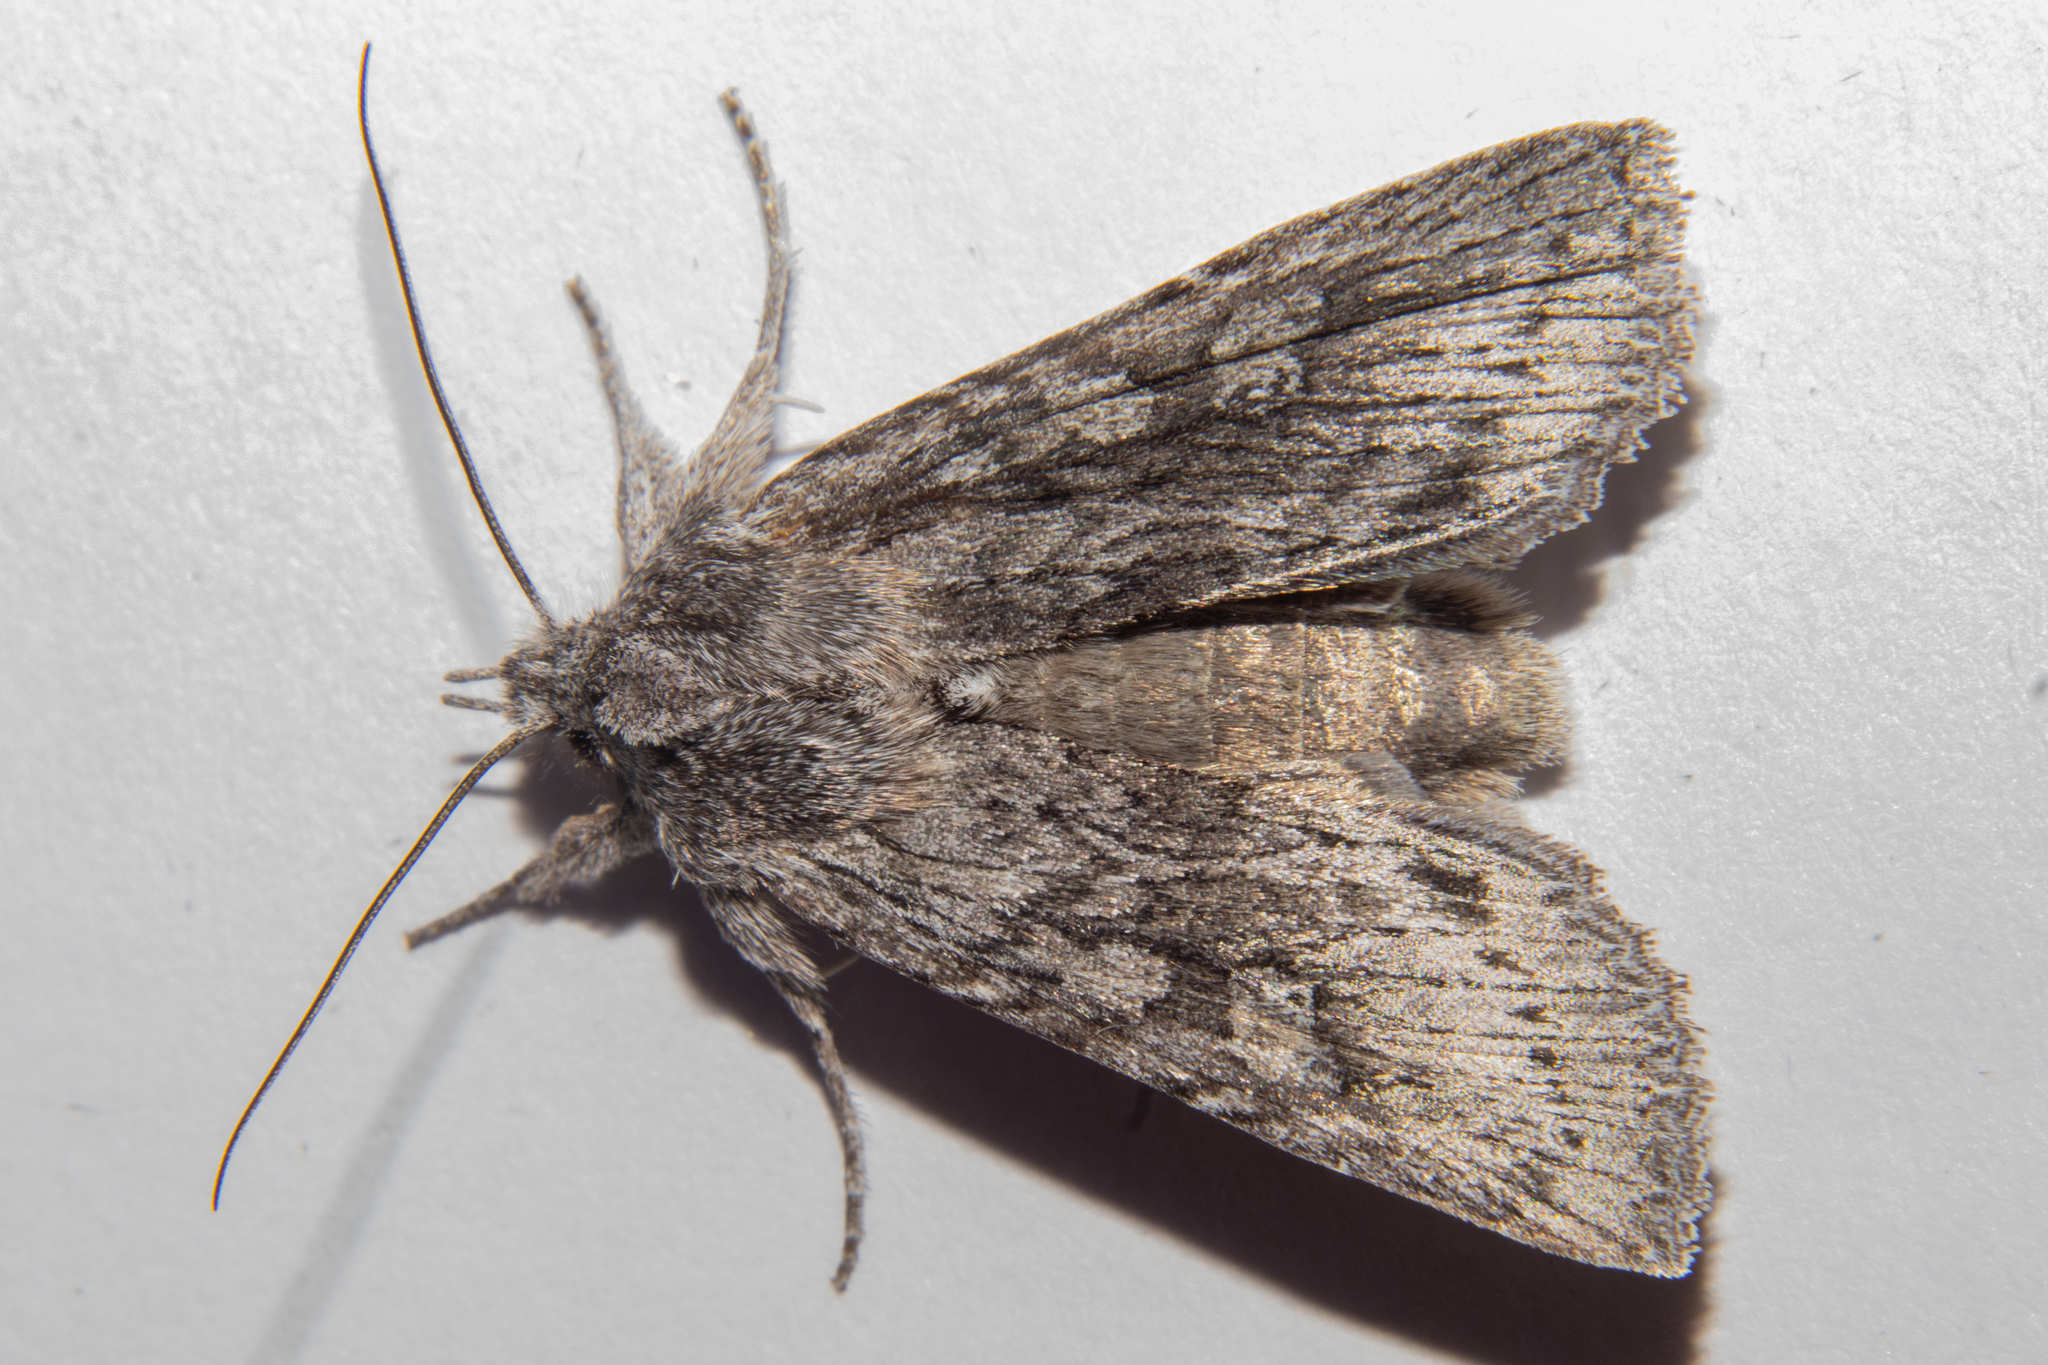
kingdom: Animalia
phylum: Arthropoda
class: Insecta
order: Lepidoptera
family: Noctuidae
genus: Physetica
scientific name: Physetica phricias
